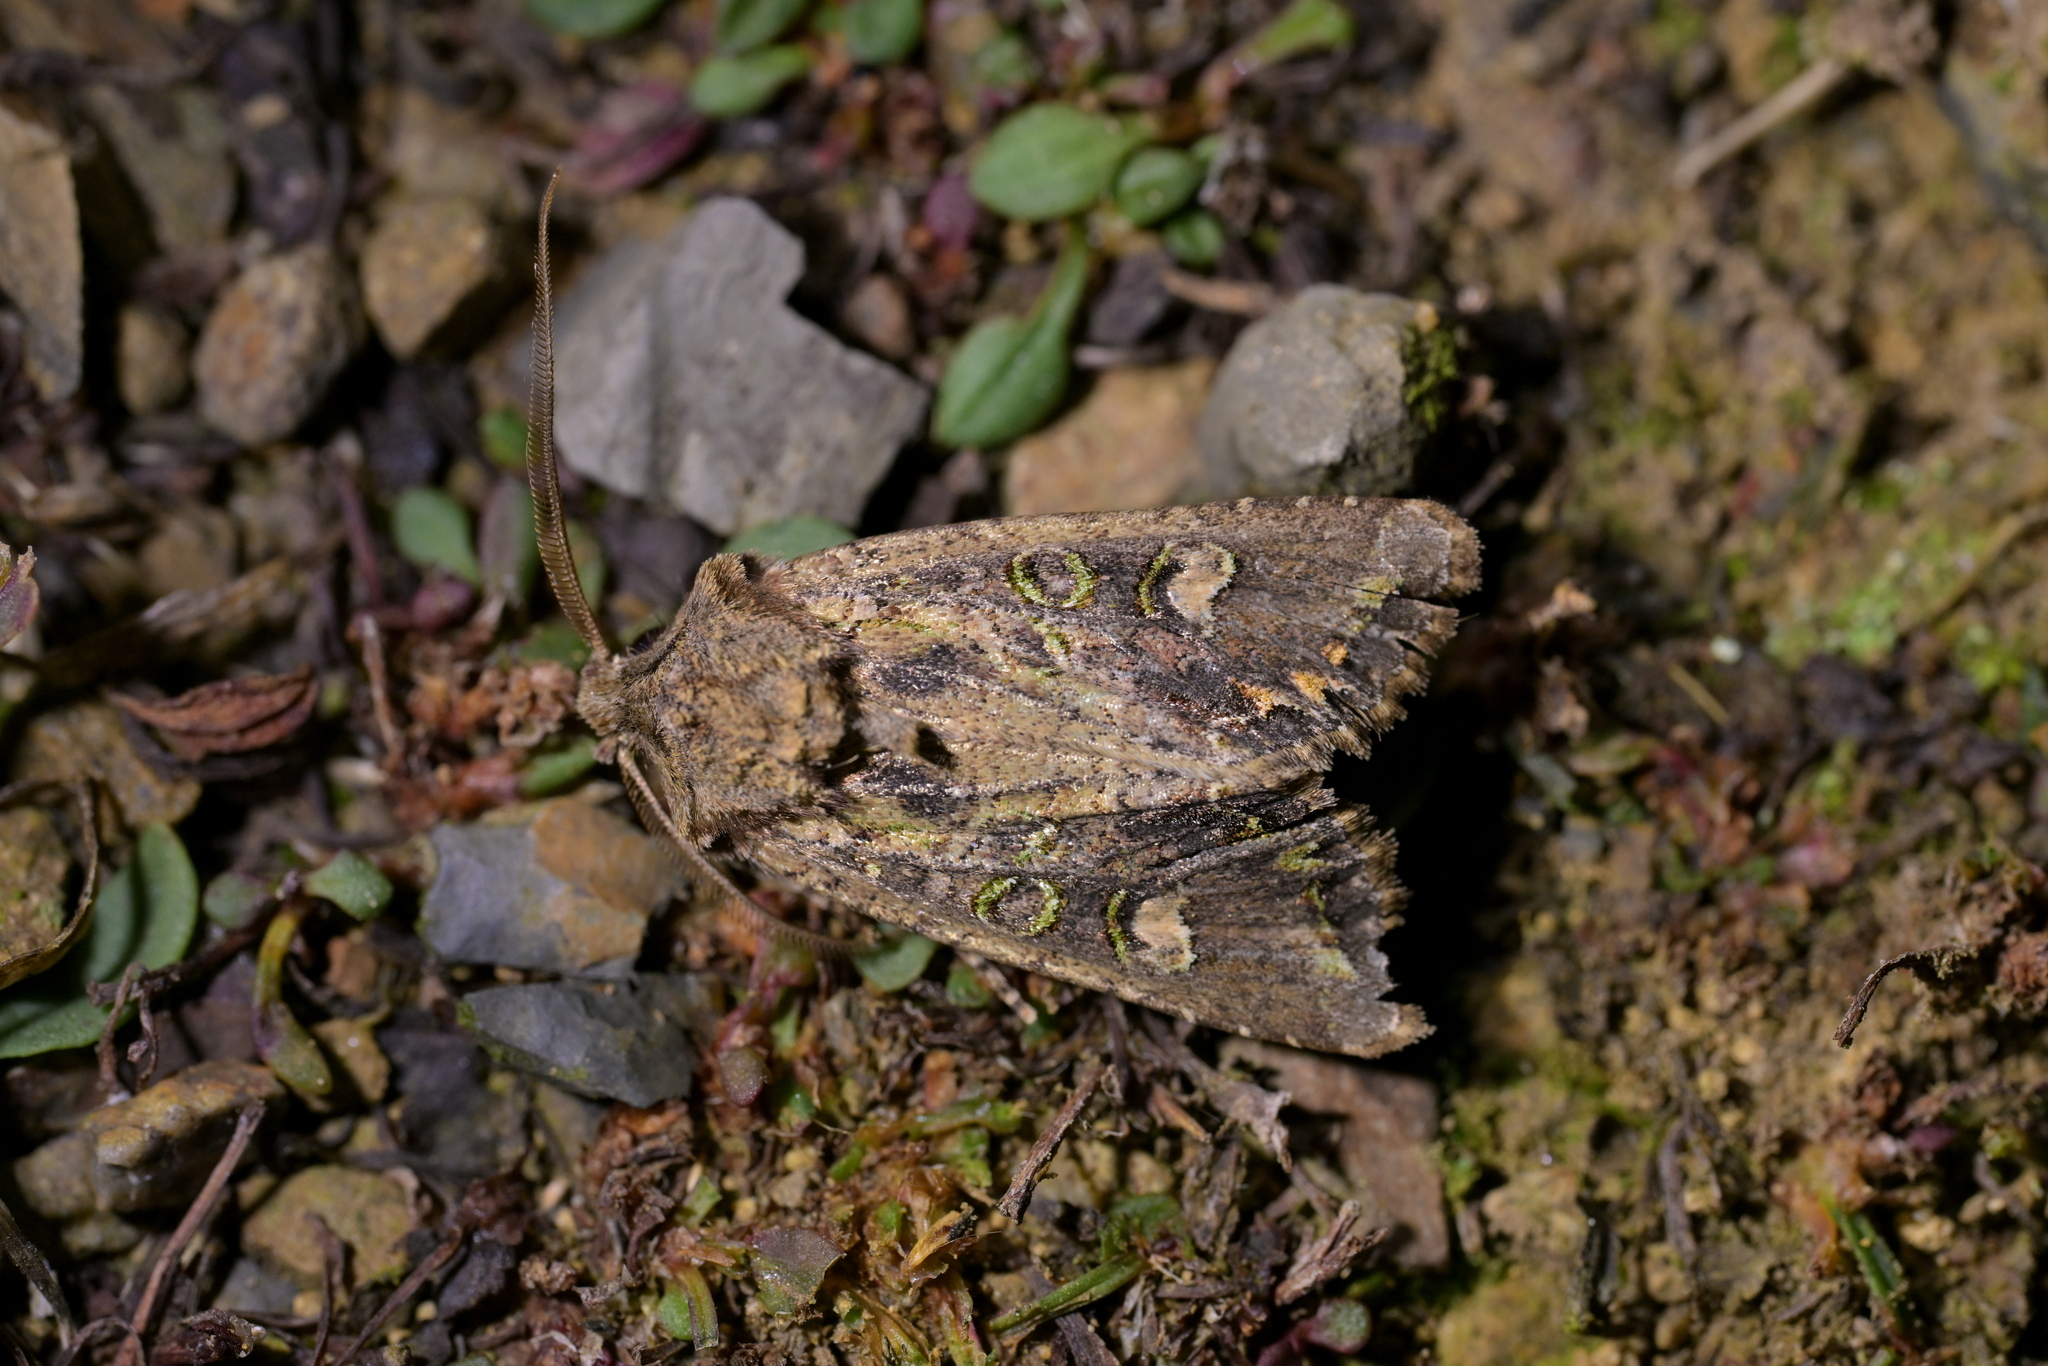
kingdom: Animalia
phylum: Arthropoda
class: Insecta
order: Lepidoptera
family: Noctuidae
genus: Ichneutica
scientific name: Ichneutica insignis
